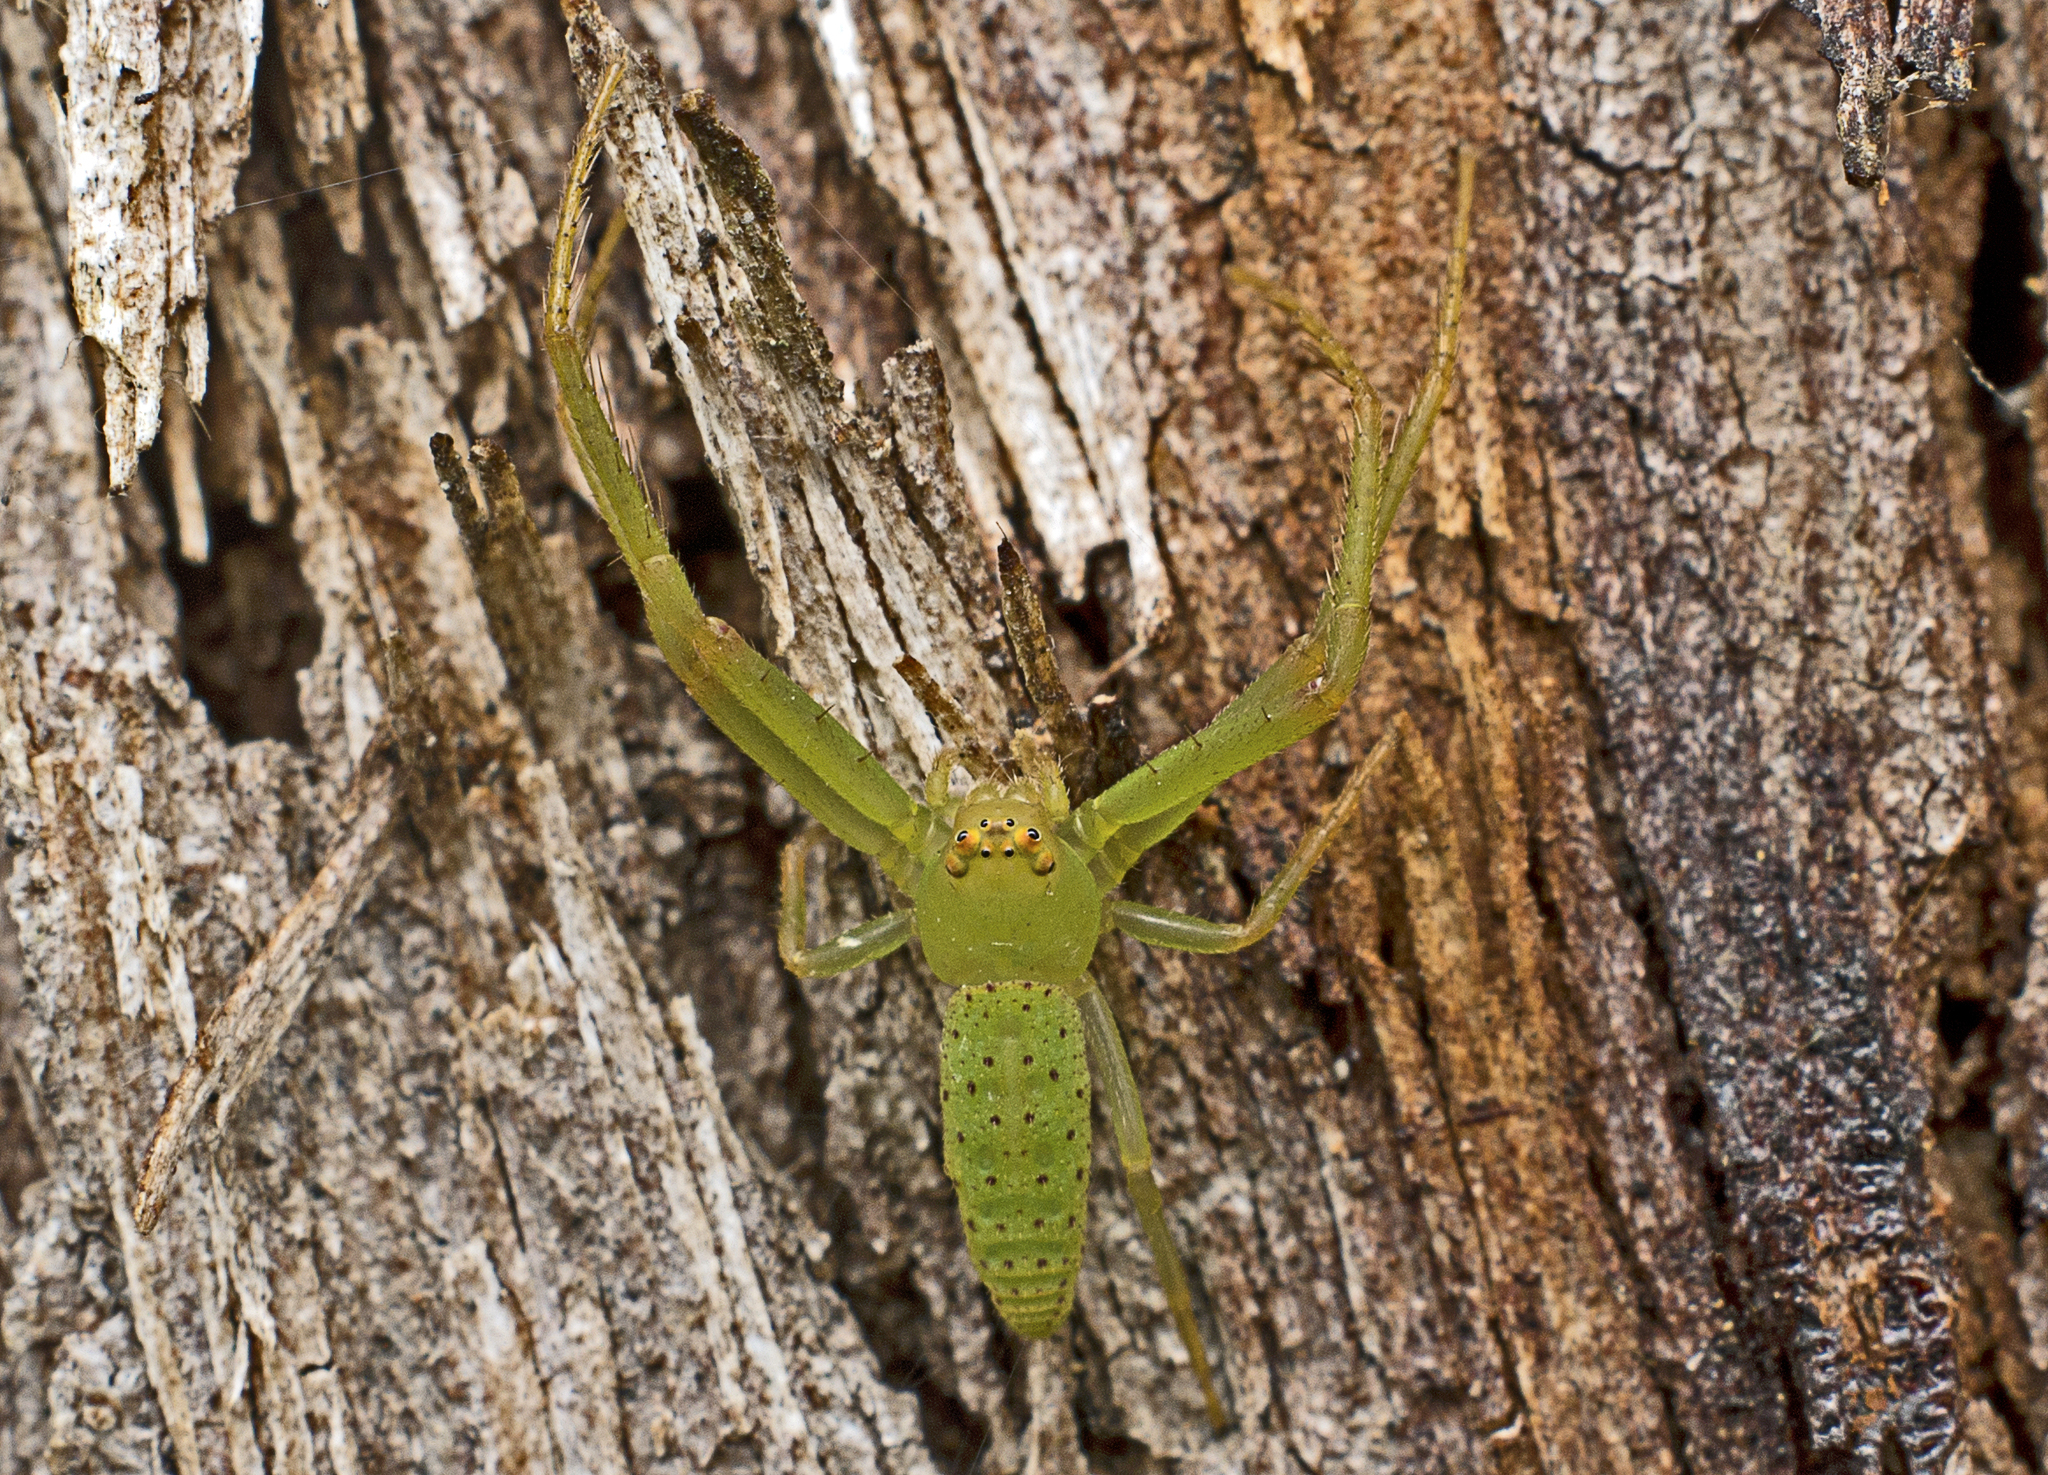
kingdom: Animalia
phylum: Arthropoda
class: Arachnida
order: Araneae
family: Thomisidae
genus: Cetratus
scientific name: Cetratus rubropunctatus
